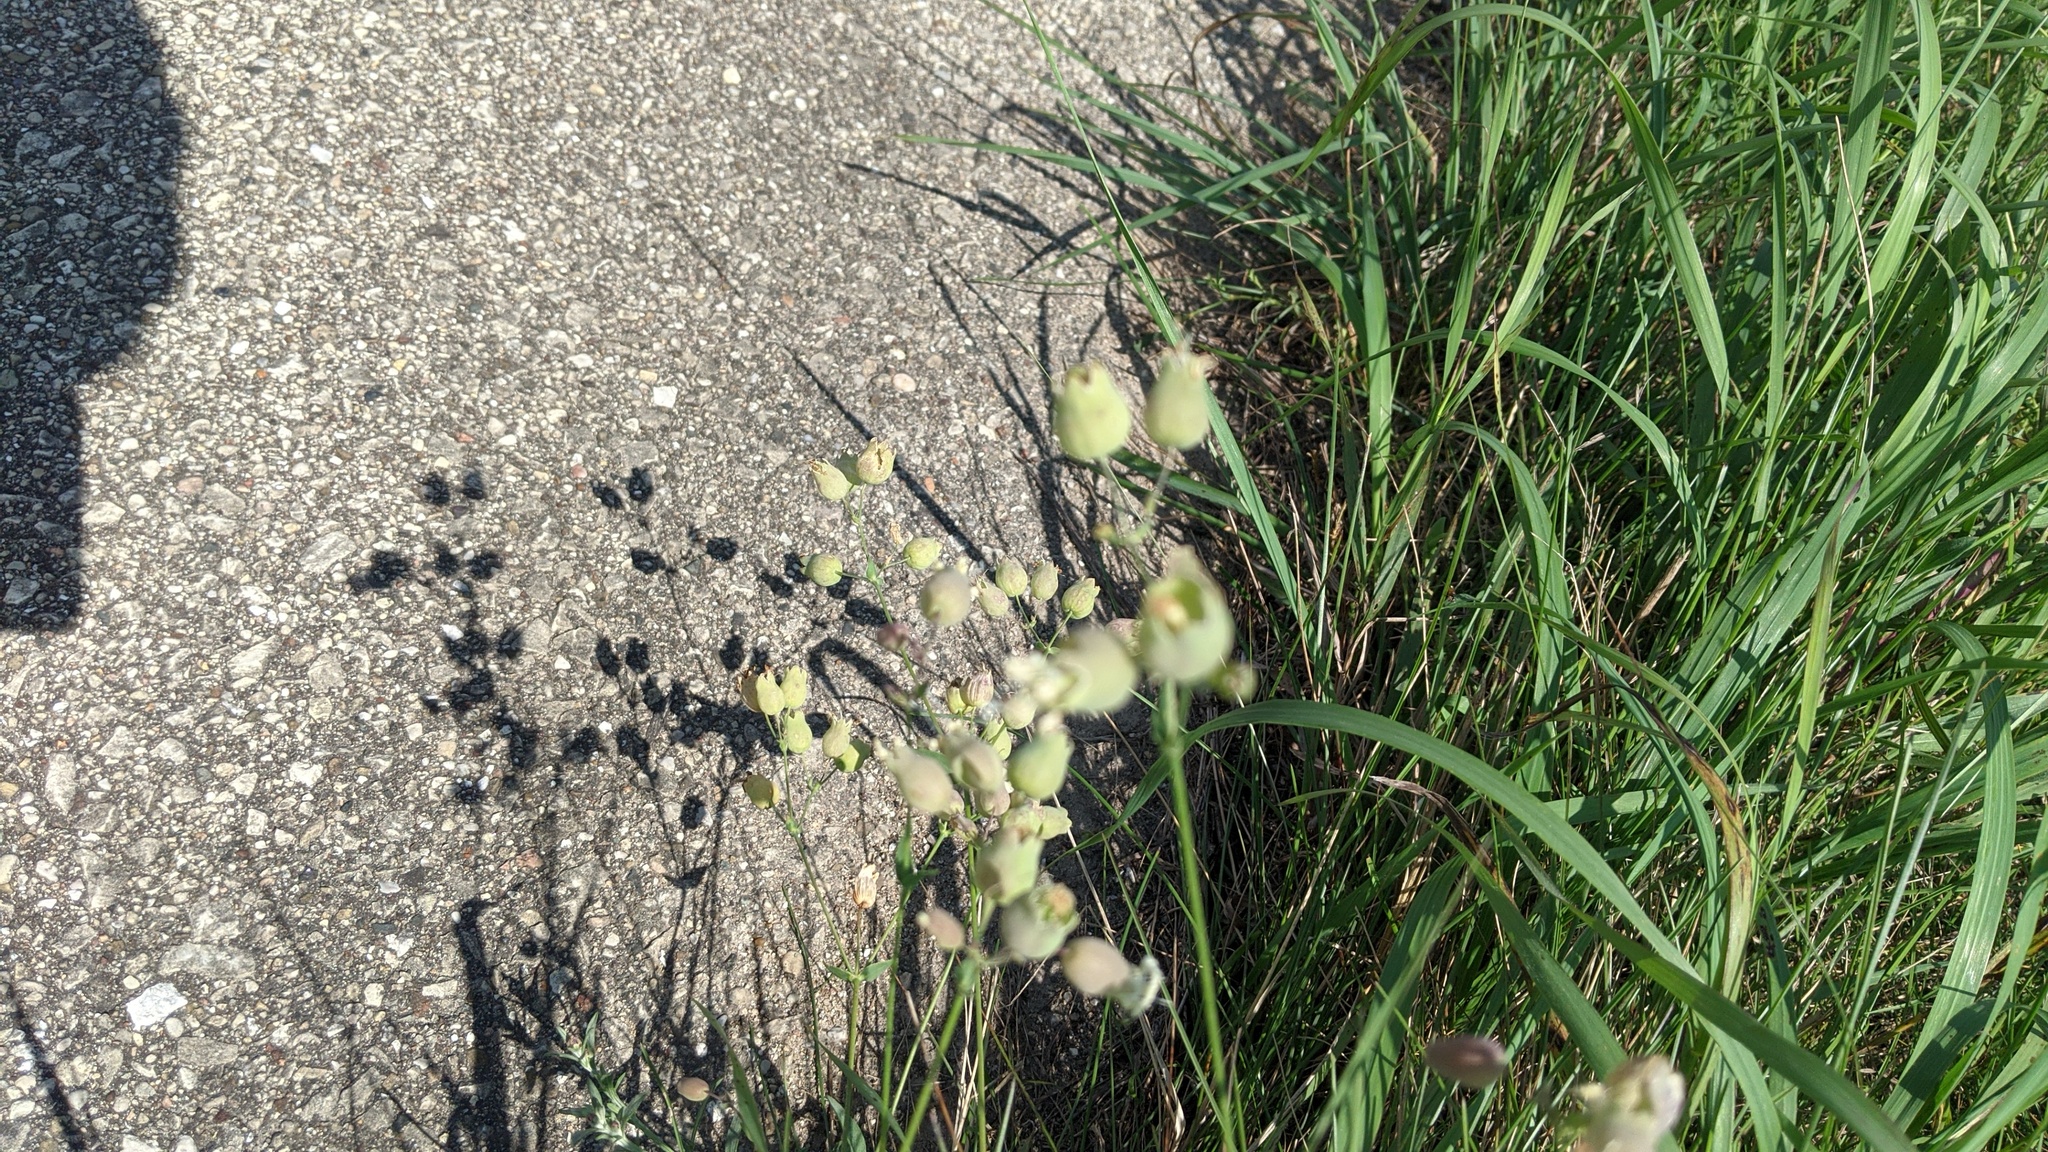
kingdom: Plantae
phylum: Tracheophyta
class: Magnoliopsida
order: Caryophyllales
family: Caryophyllaceae
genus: Silene
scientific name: Silene vulgaris
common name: Bladder campion
